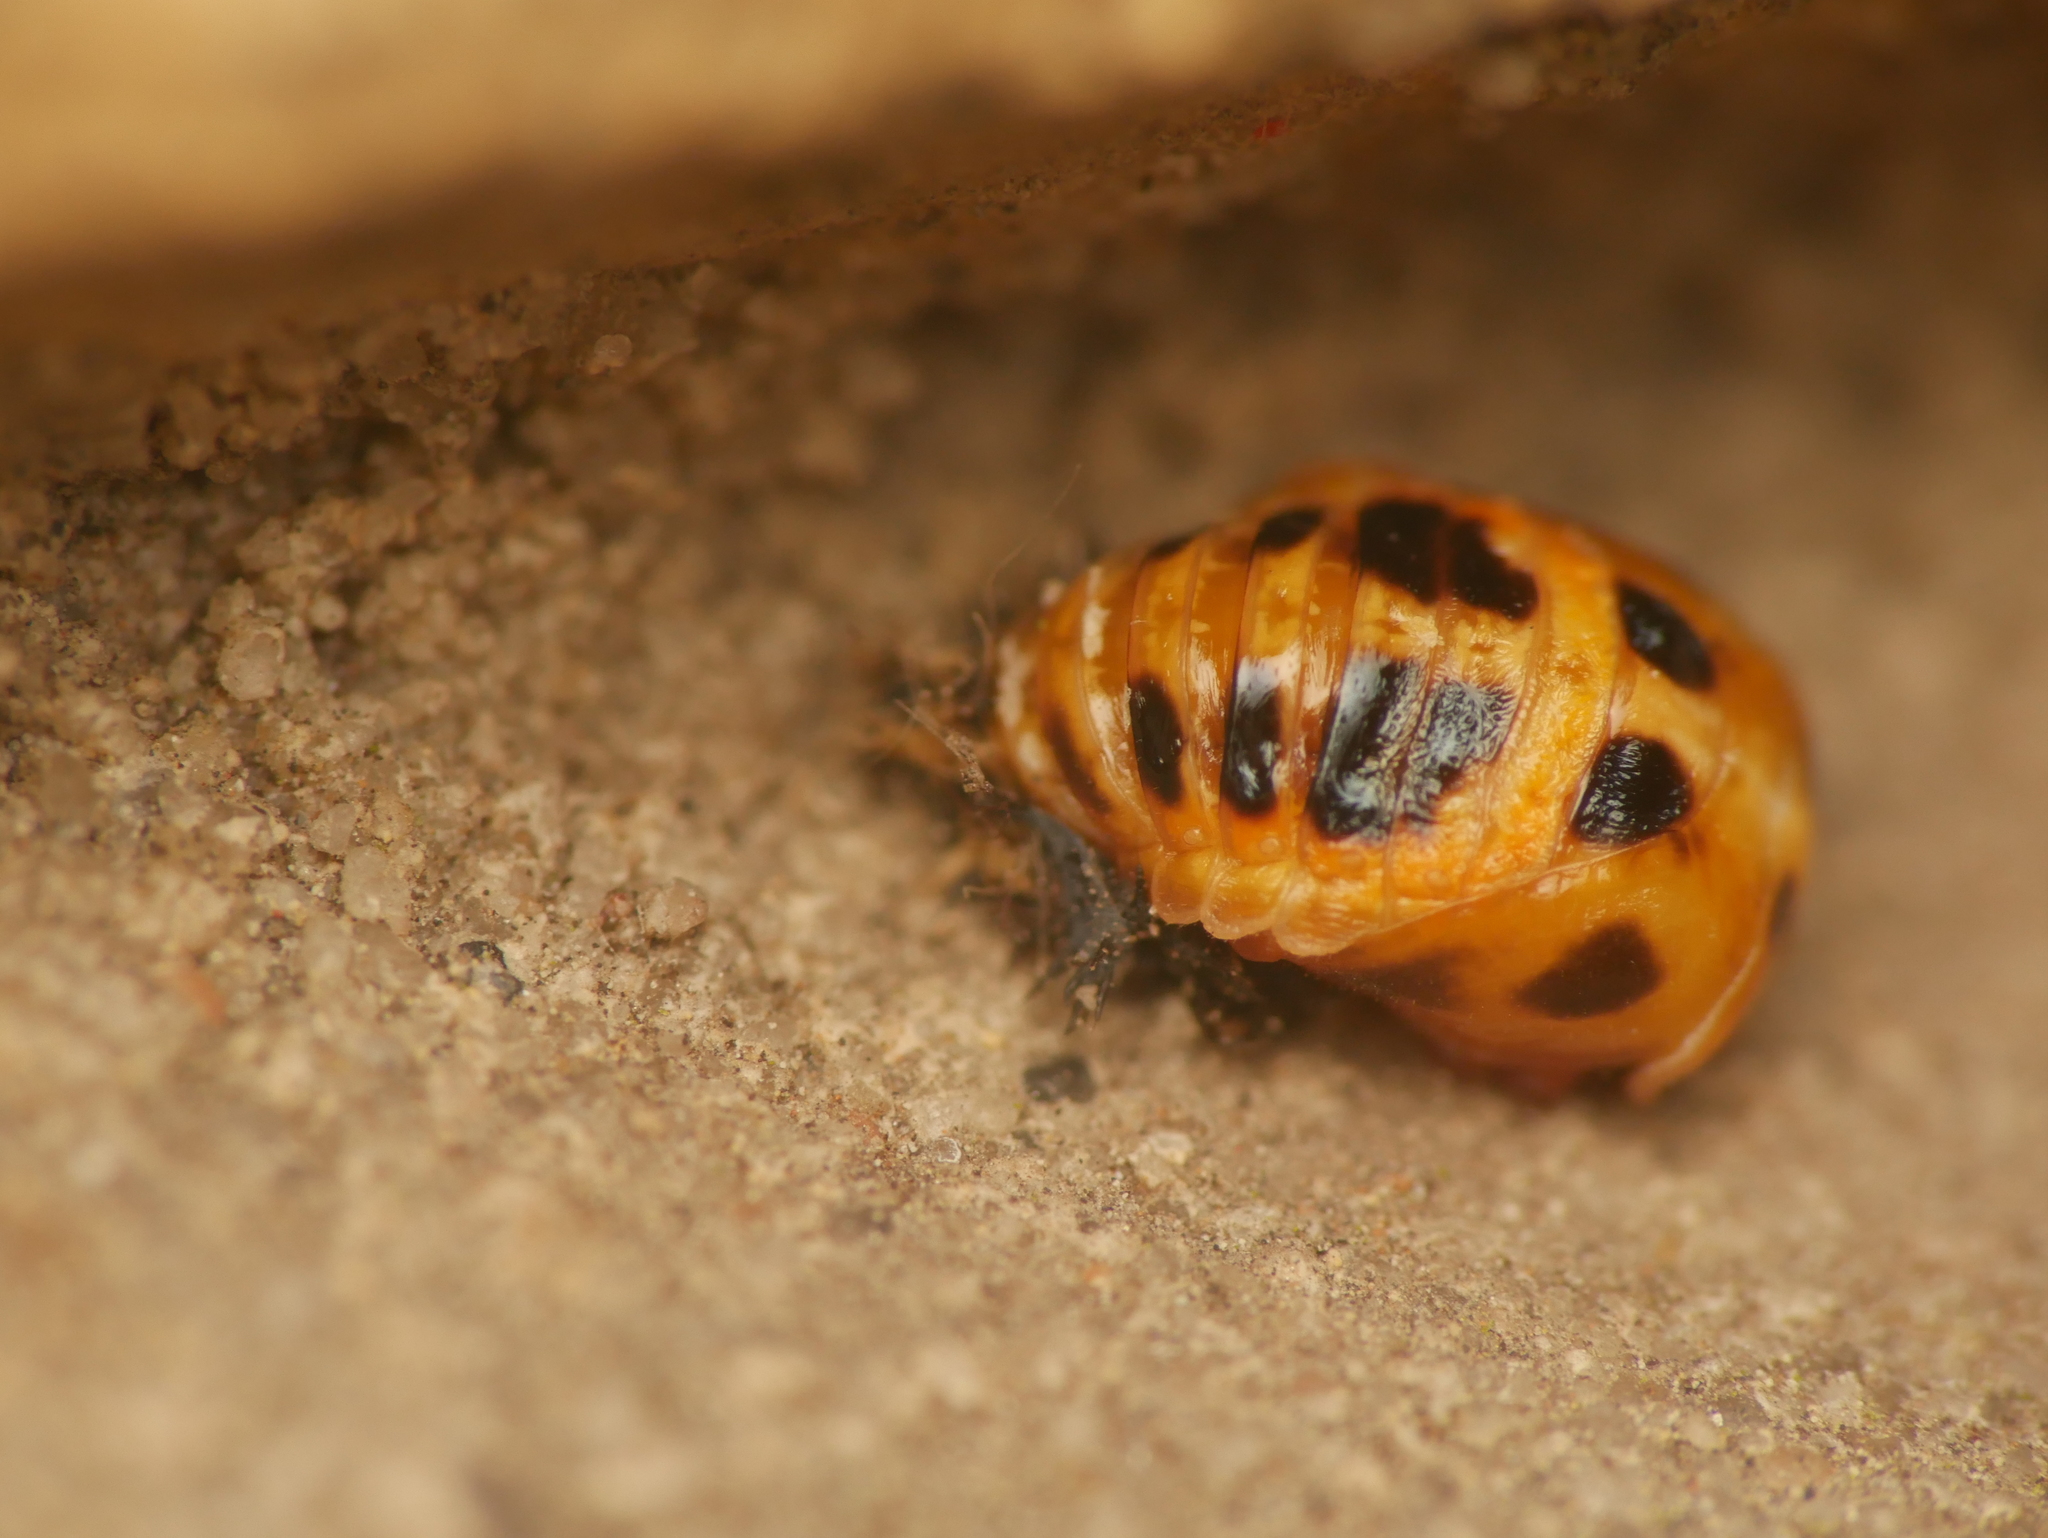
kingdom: Animalia
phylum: Arthropoda
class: Insecta
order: Coleoptera
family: Coccinellidae
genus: Harmonia
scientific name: Harmonia axyridis
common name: Harlequin ladybird
